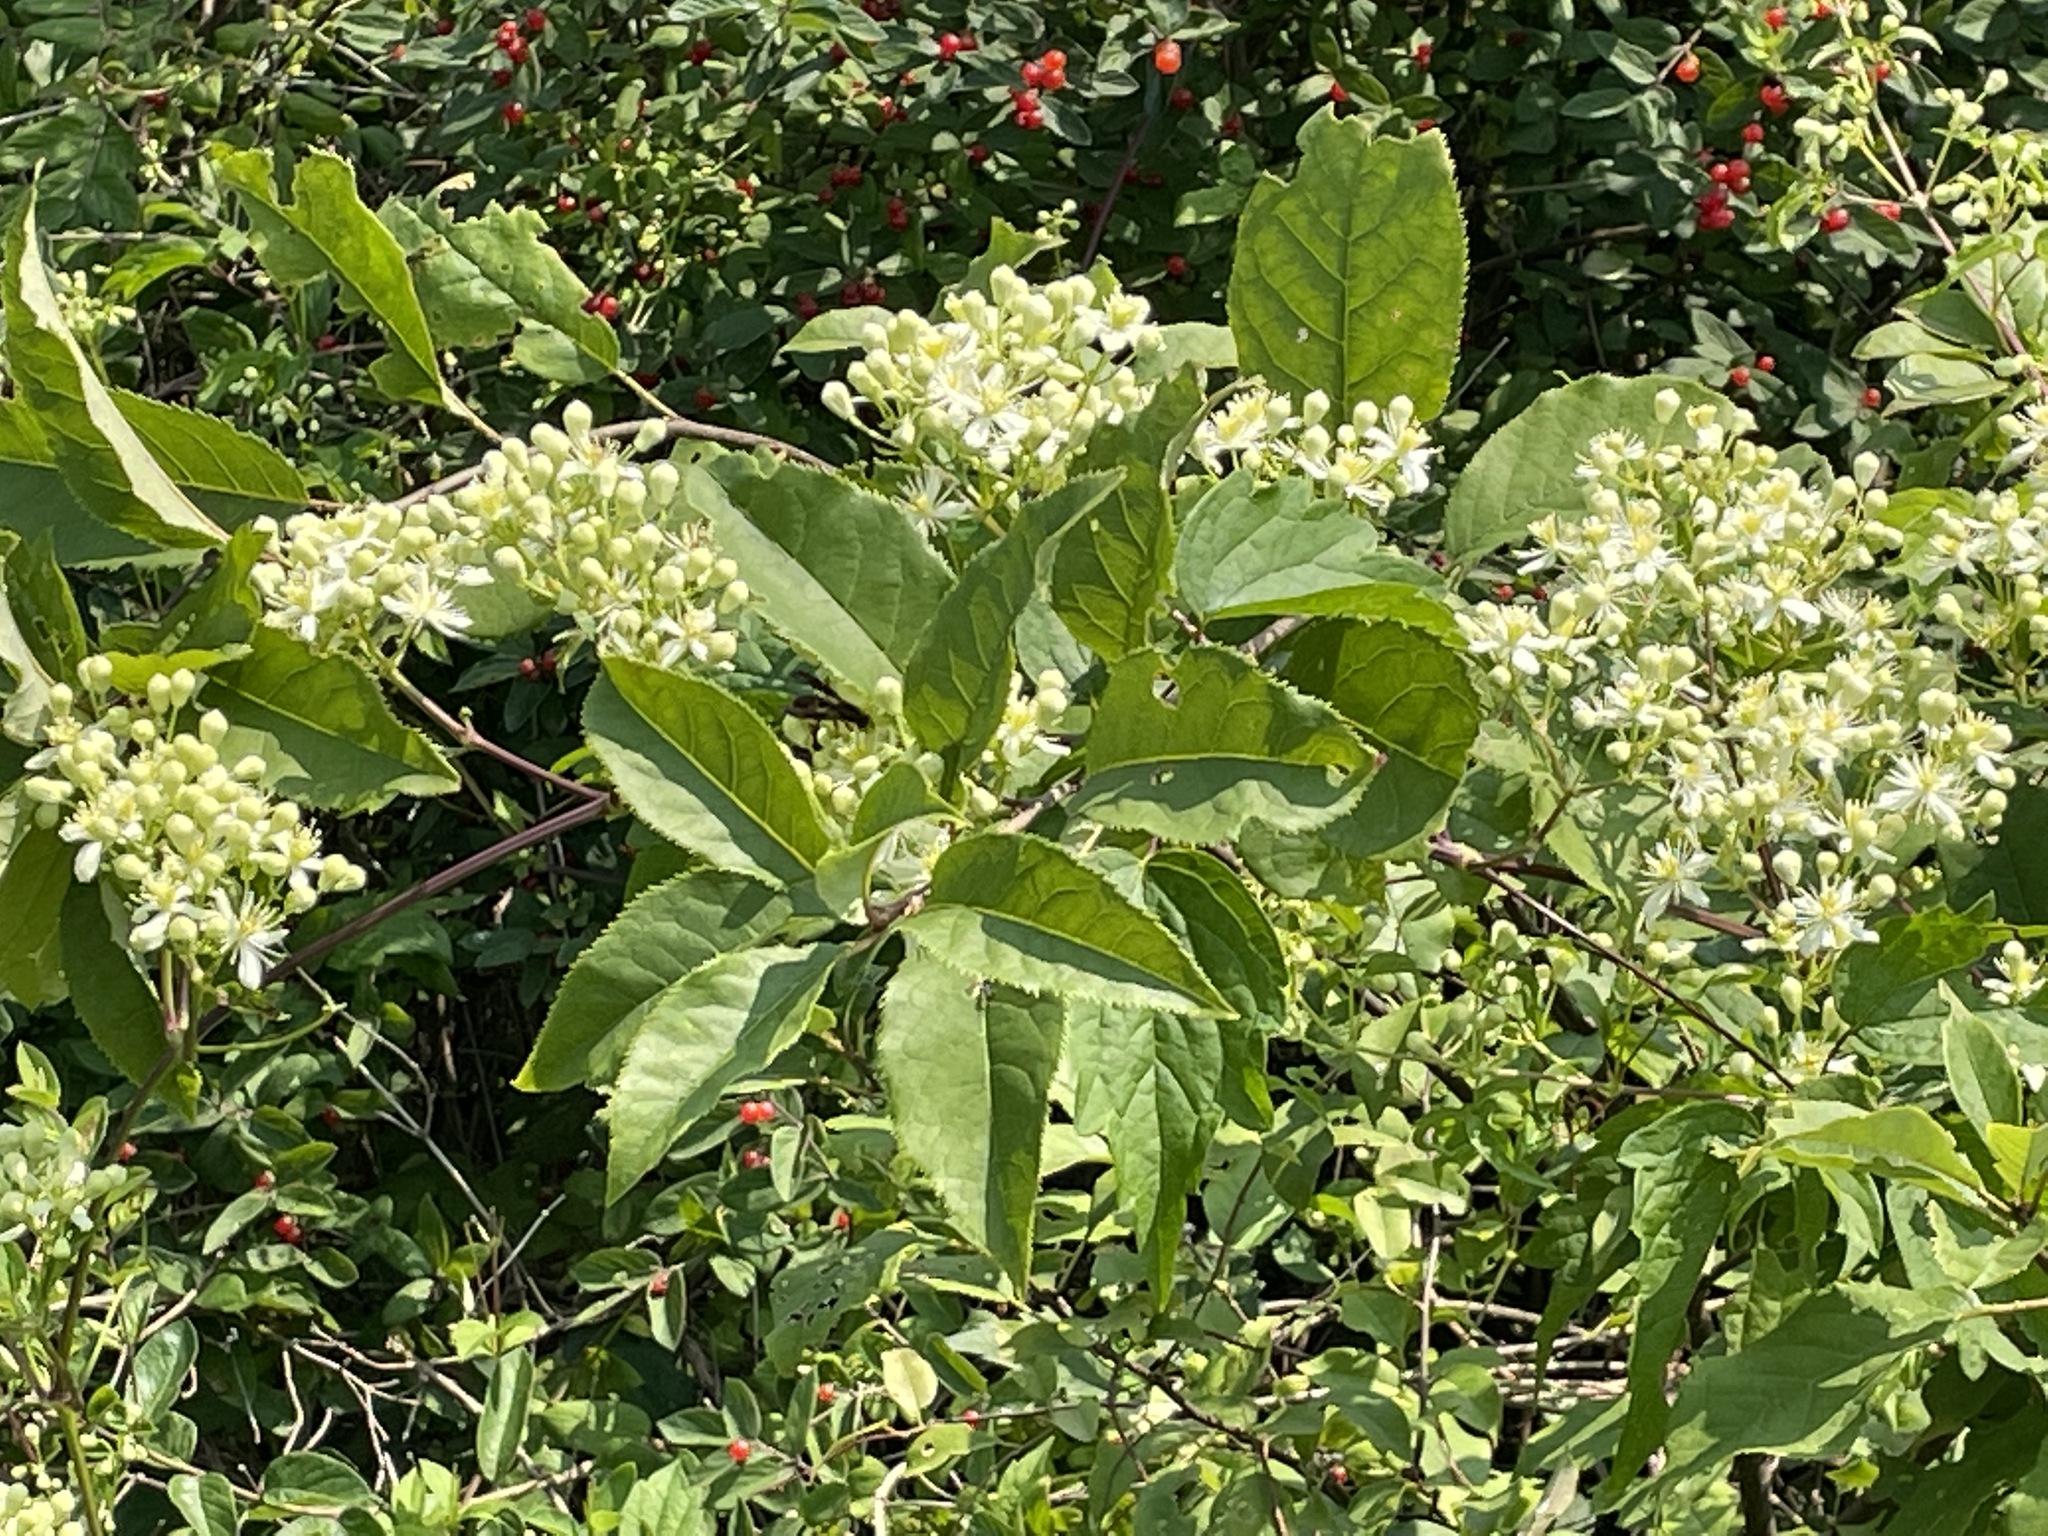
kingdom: Plantae
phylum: Tracheophyta
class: Magnoliopsida
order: Ranunculales
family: Ranunculaceae
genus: Clematis
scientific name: Clematis virginiana
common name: Virgin's-bower
